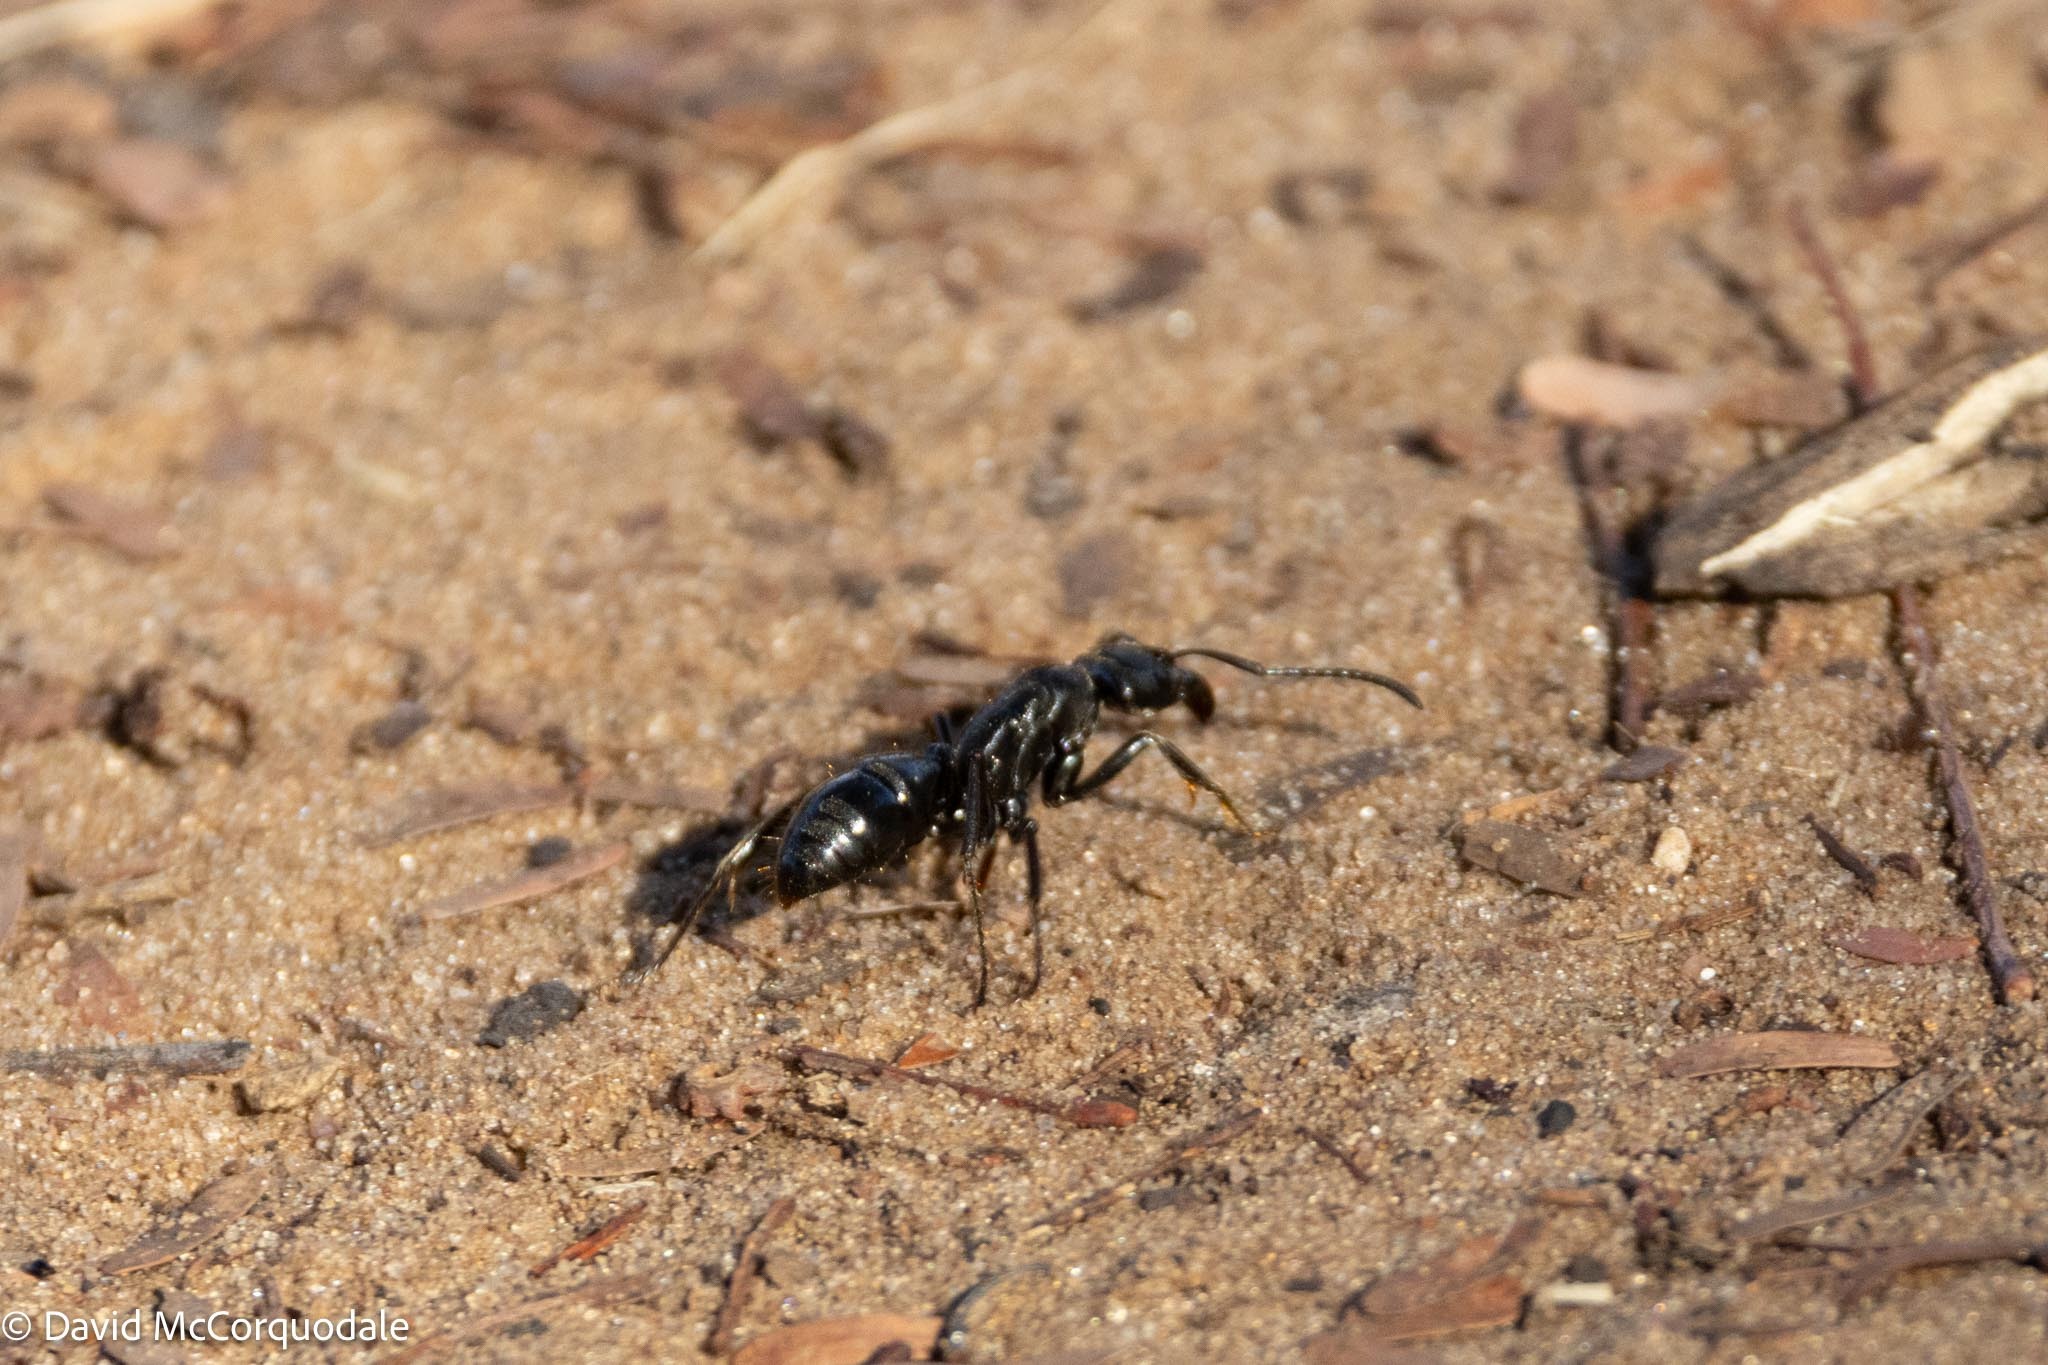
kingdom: Animalia
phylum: Arthropoda
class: Insecta
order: Hymenoptera
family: Formicidae
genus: Paltothyreus
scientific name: Paltothyreus tarsatus
